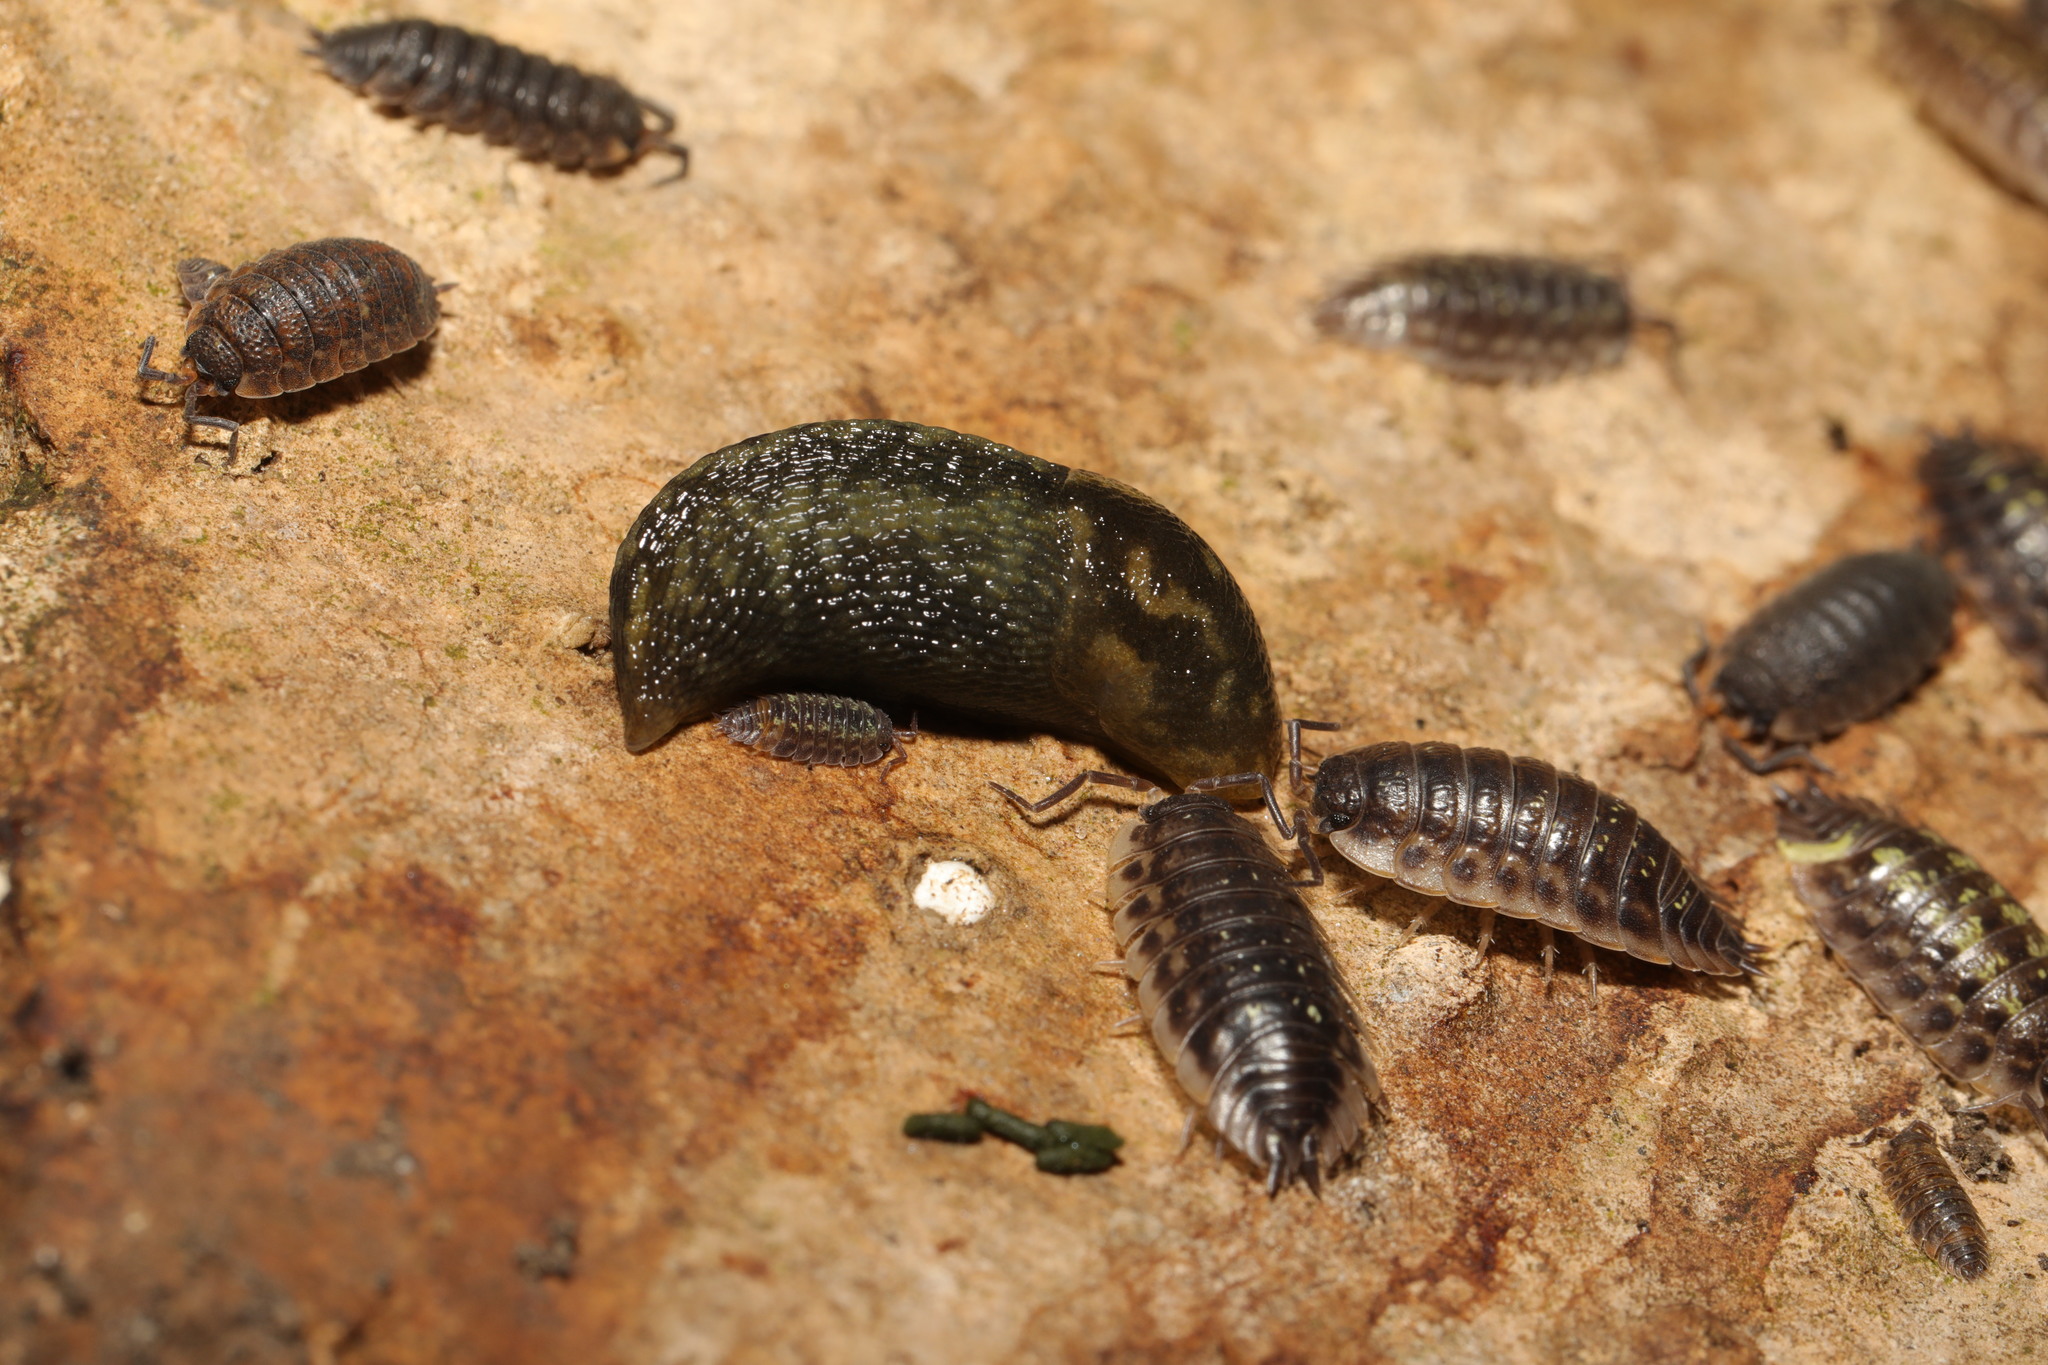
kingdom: Animalia
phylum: Mollusca
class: Gastropoda
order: Stylommatophora
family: Limacidae
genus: Limacus
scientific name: Limacus maculatus
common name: Irish yellow slug
